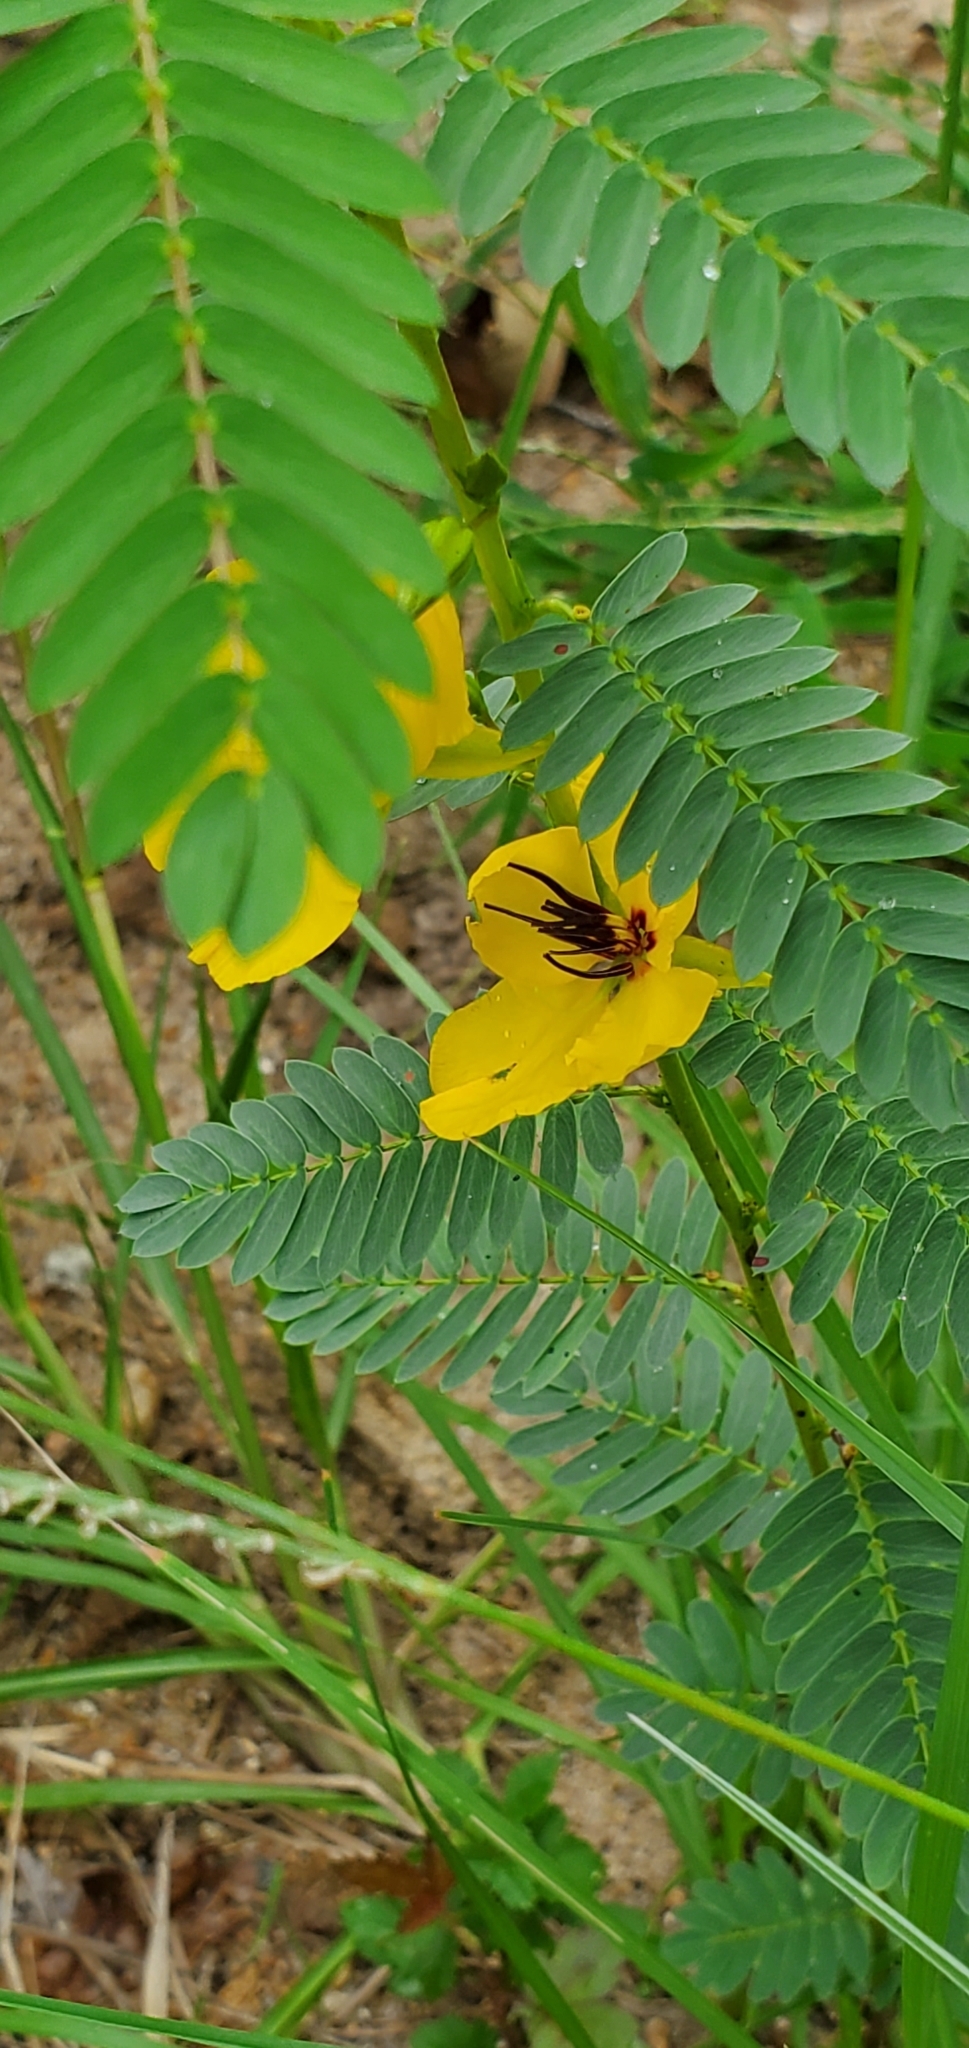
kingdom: Plantae
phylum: Tracheophyta
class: Magnoliopsida
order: Fabales
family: Fabaceae
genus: Chamaecrista
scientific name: Chamaecrista fasciculata
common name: Golden cassia
